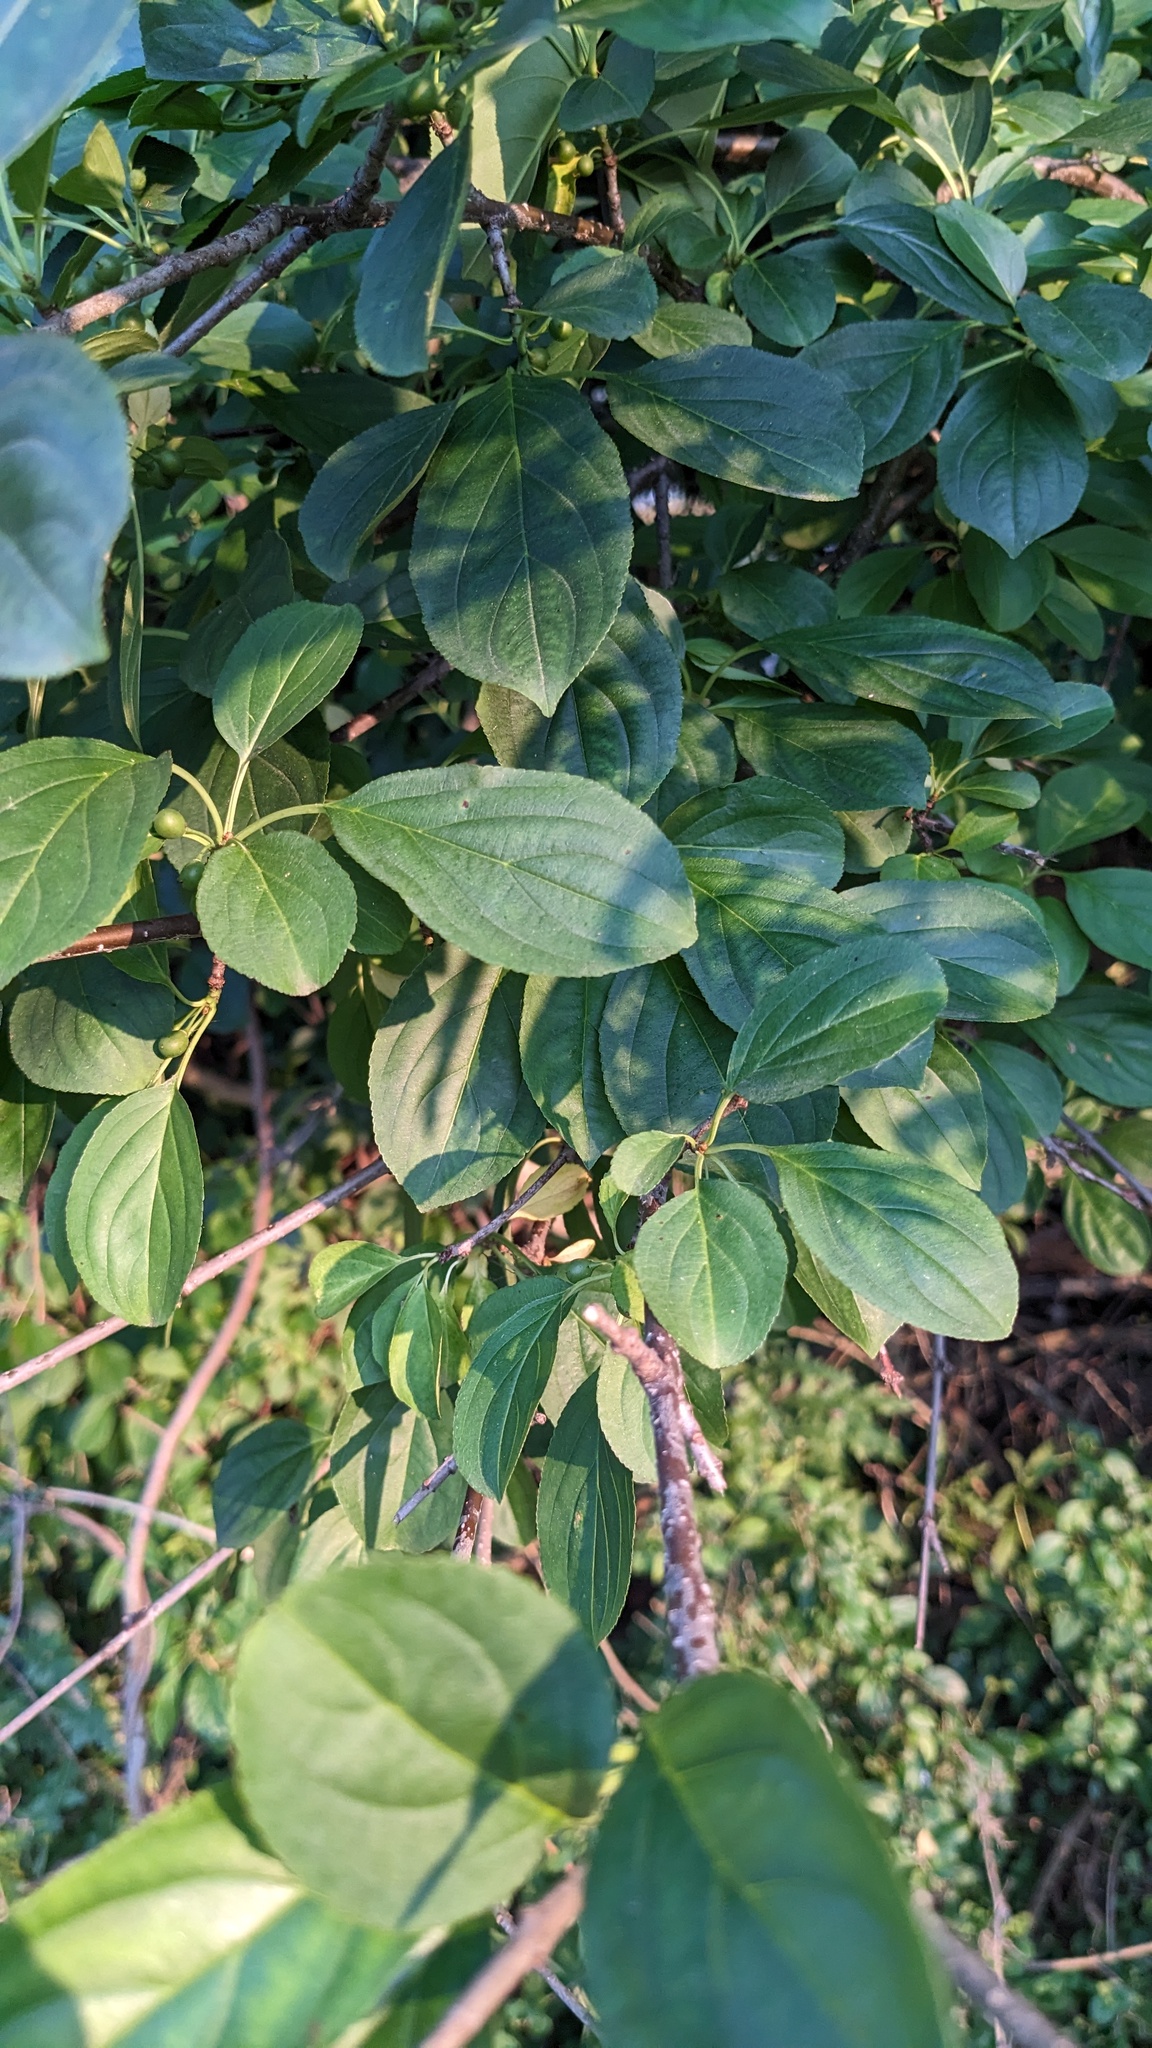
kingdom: Plantae
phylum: Tracheophyta
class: Magnoliopsida
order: Rosales
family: Rhamnaceae
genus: Rhamnus
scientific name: Rhamnus cathartica
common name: Common buckthorn
